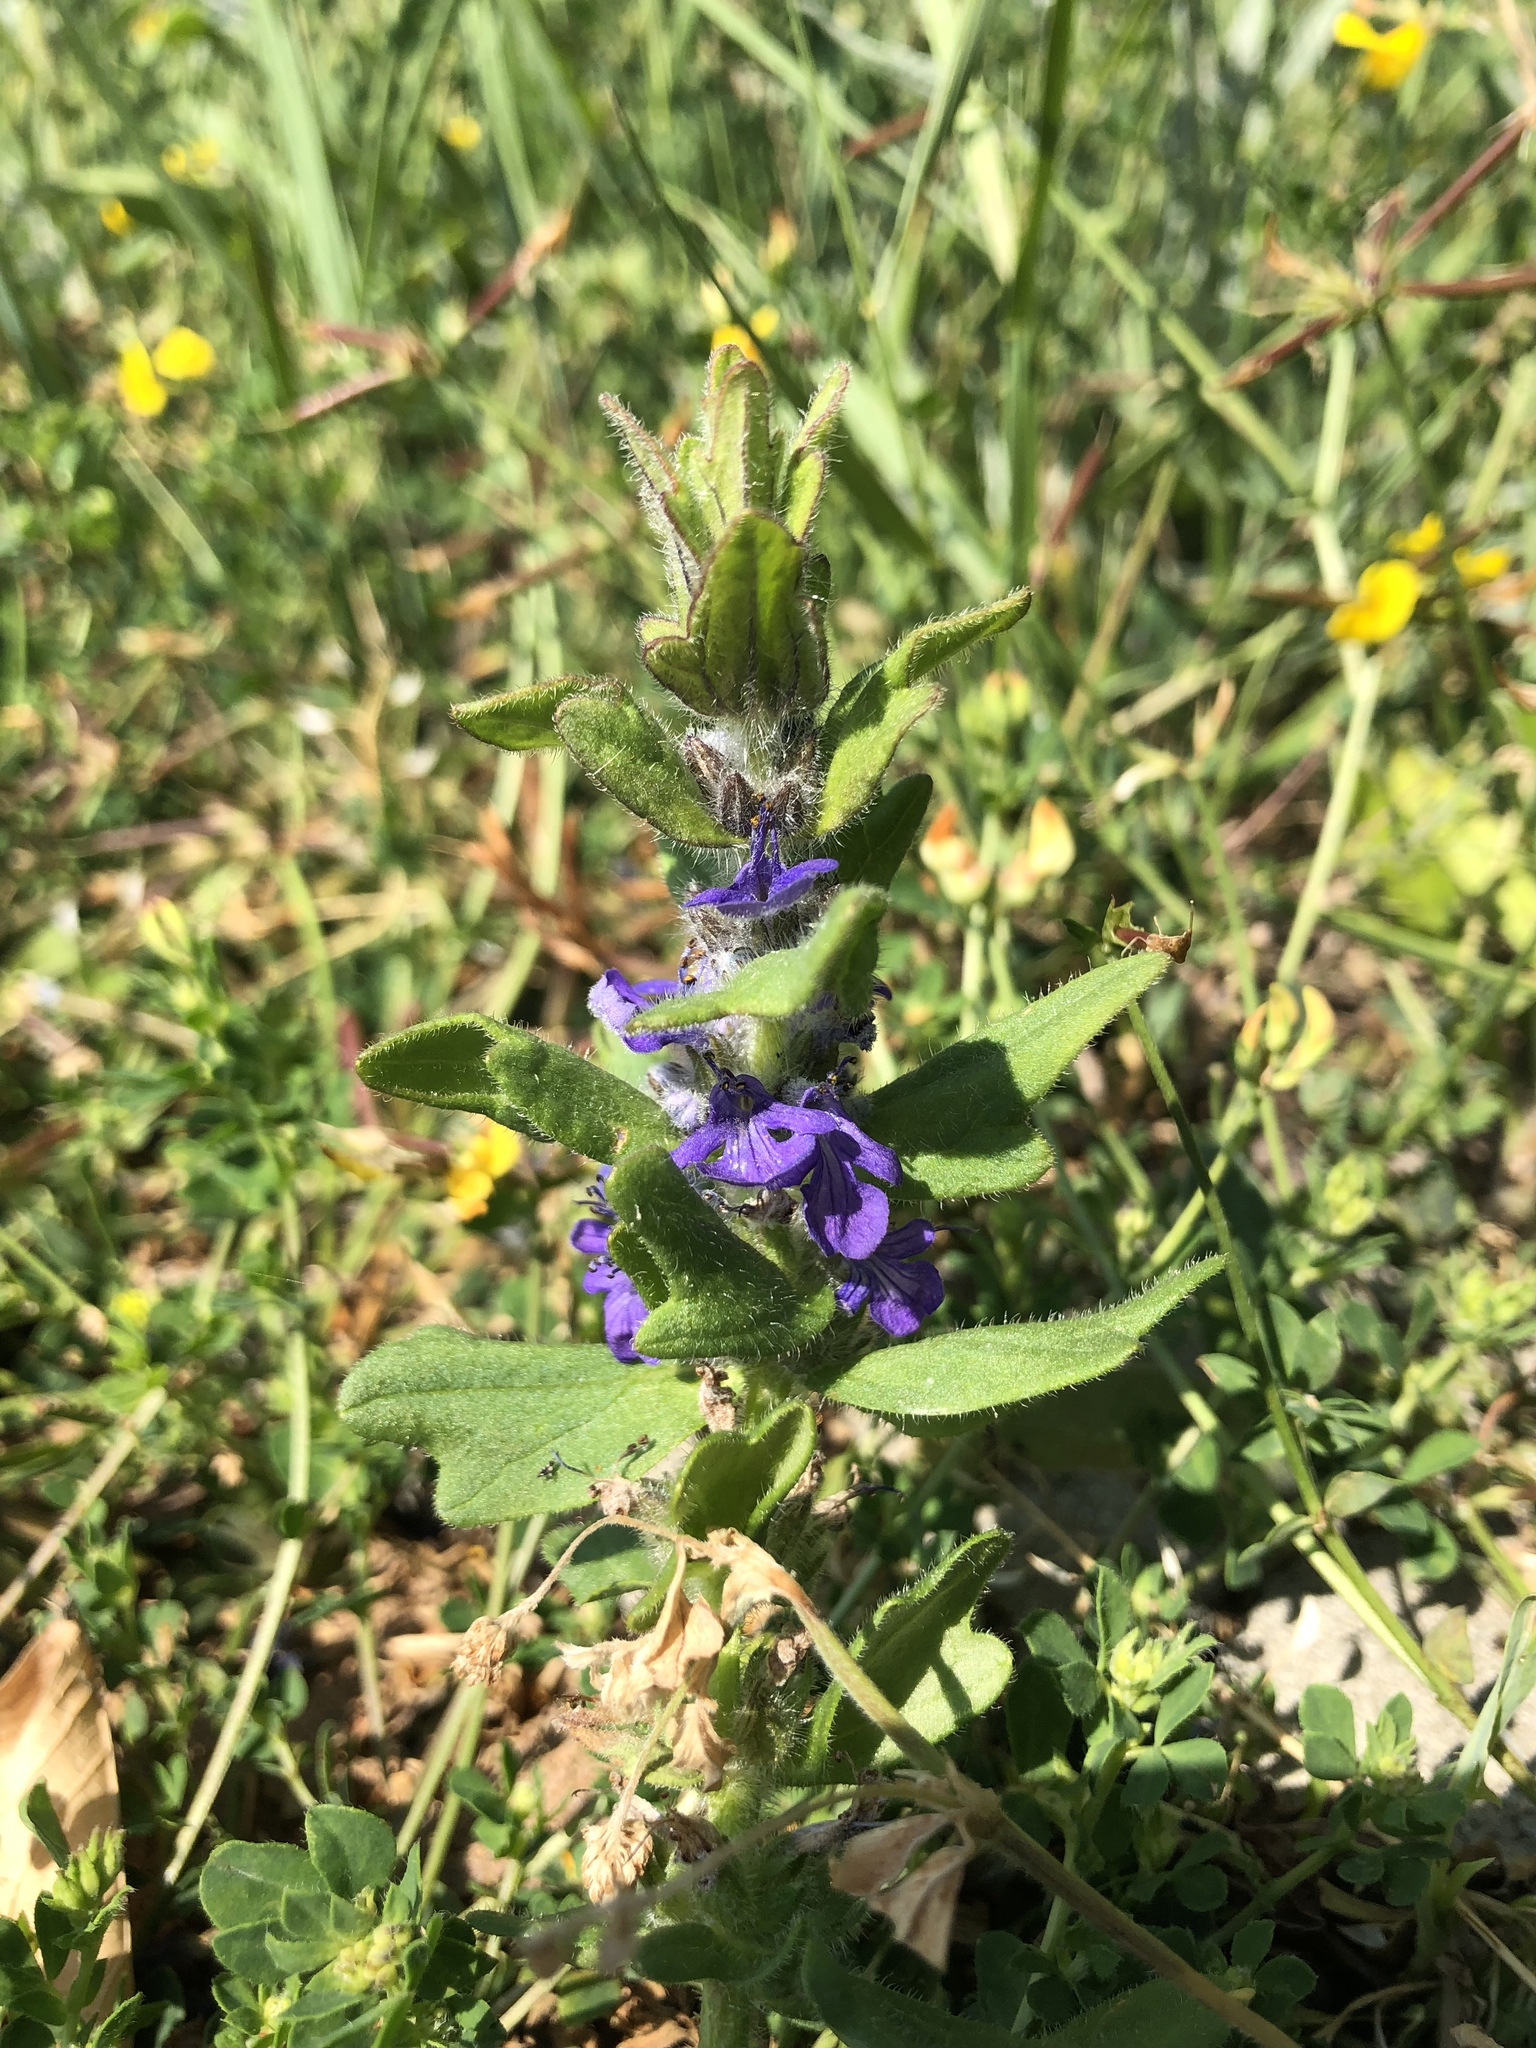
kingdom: Plantae
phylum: Tracheophyta
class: Magnoliopsida
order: Lamiales
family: Lamiaceae
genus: Ajuga
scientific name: Ajuga genevensis
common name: Blue bugle
